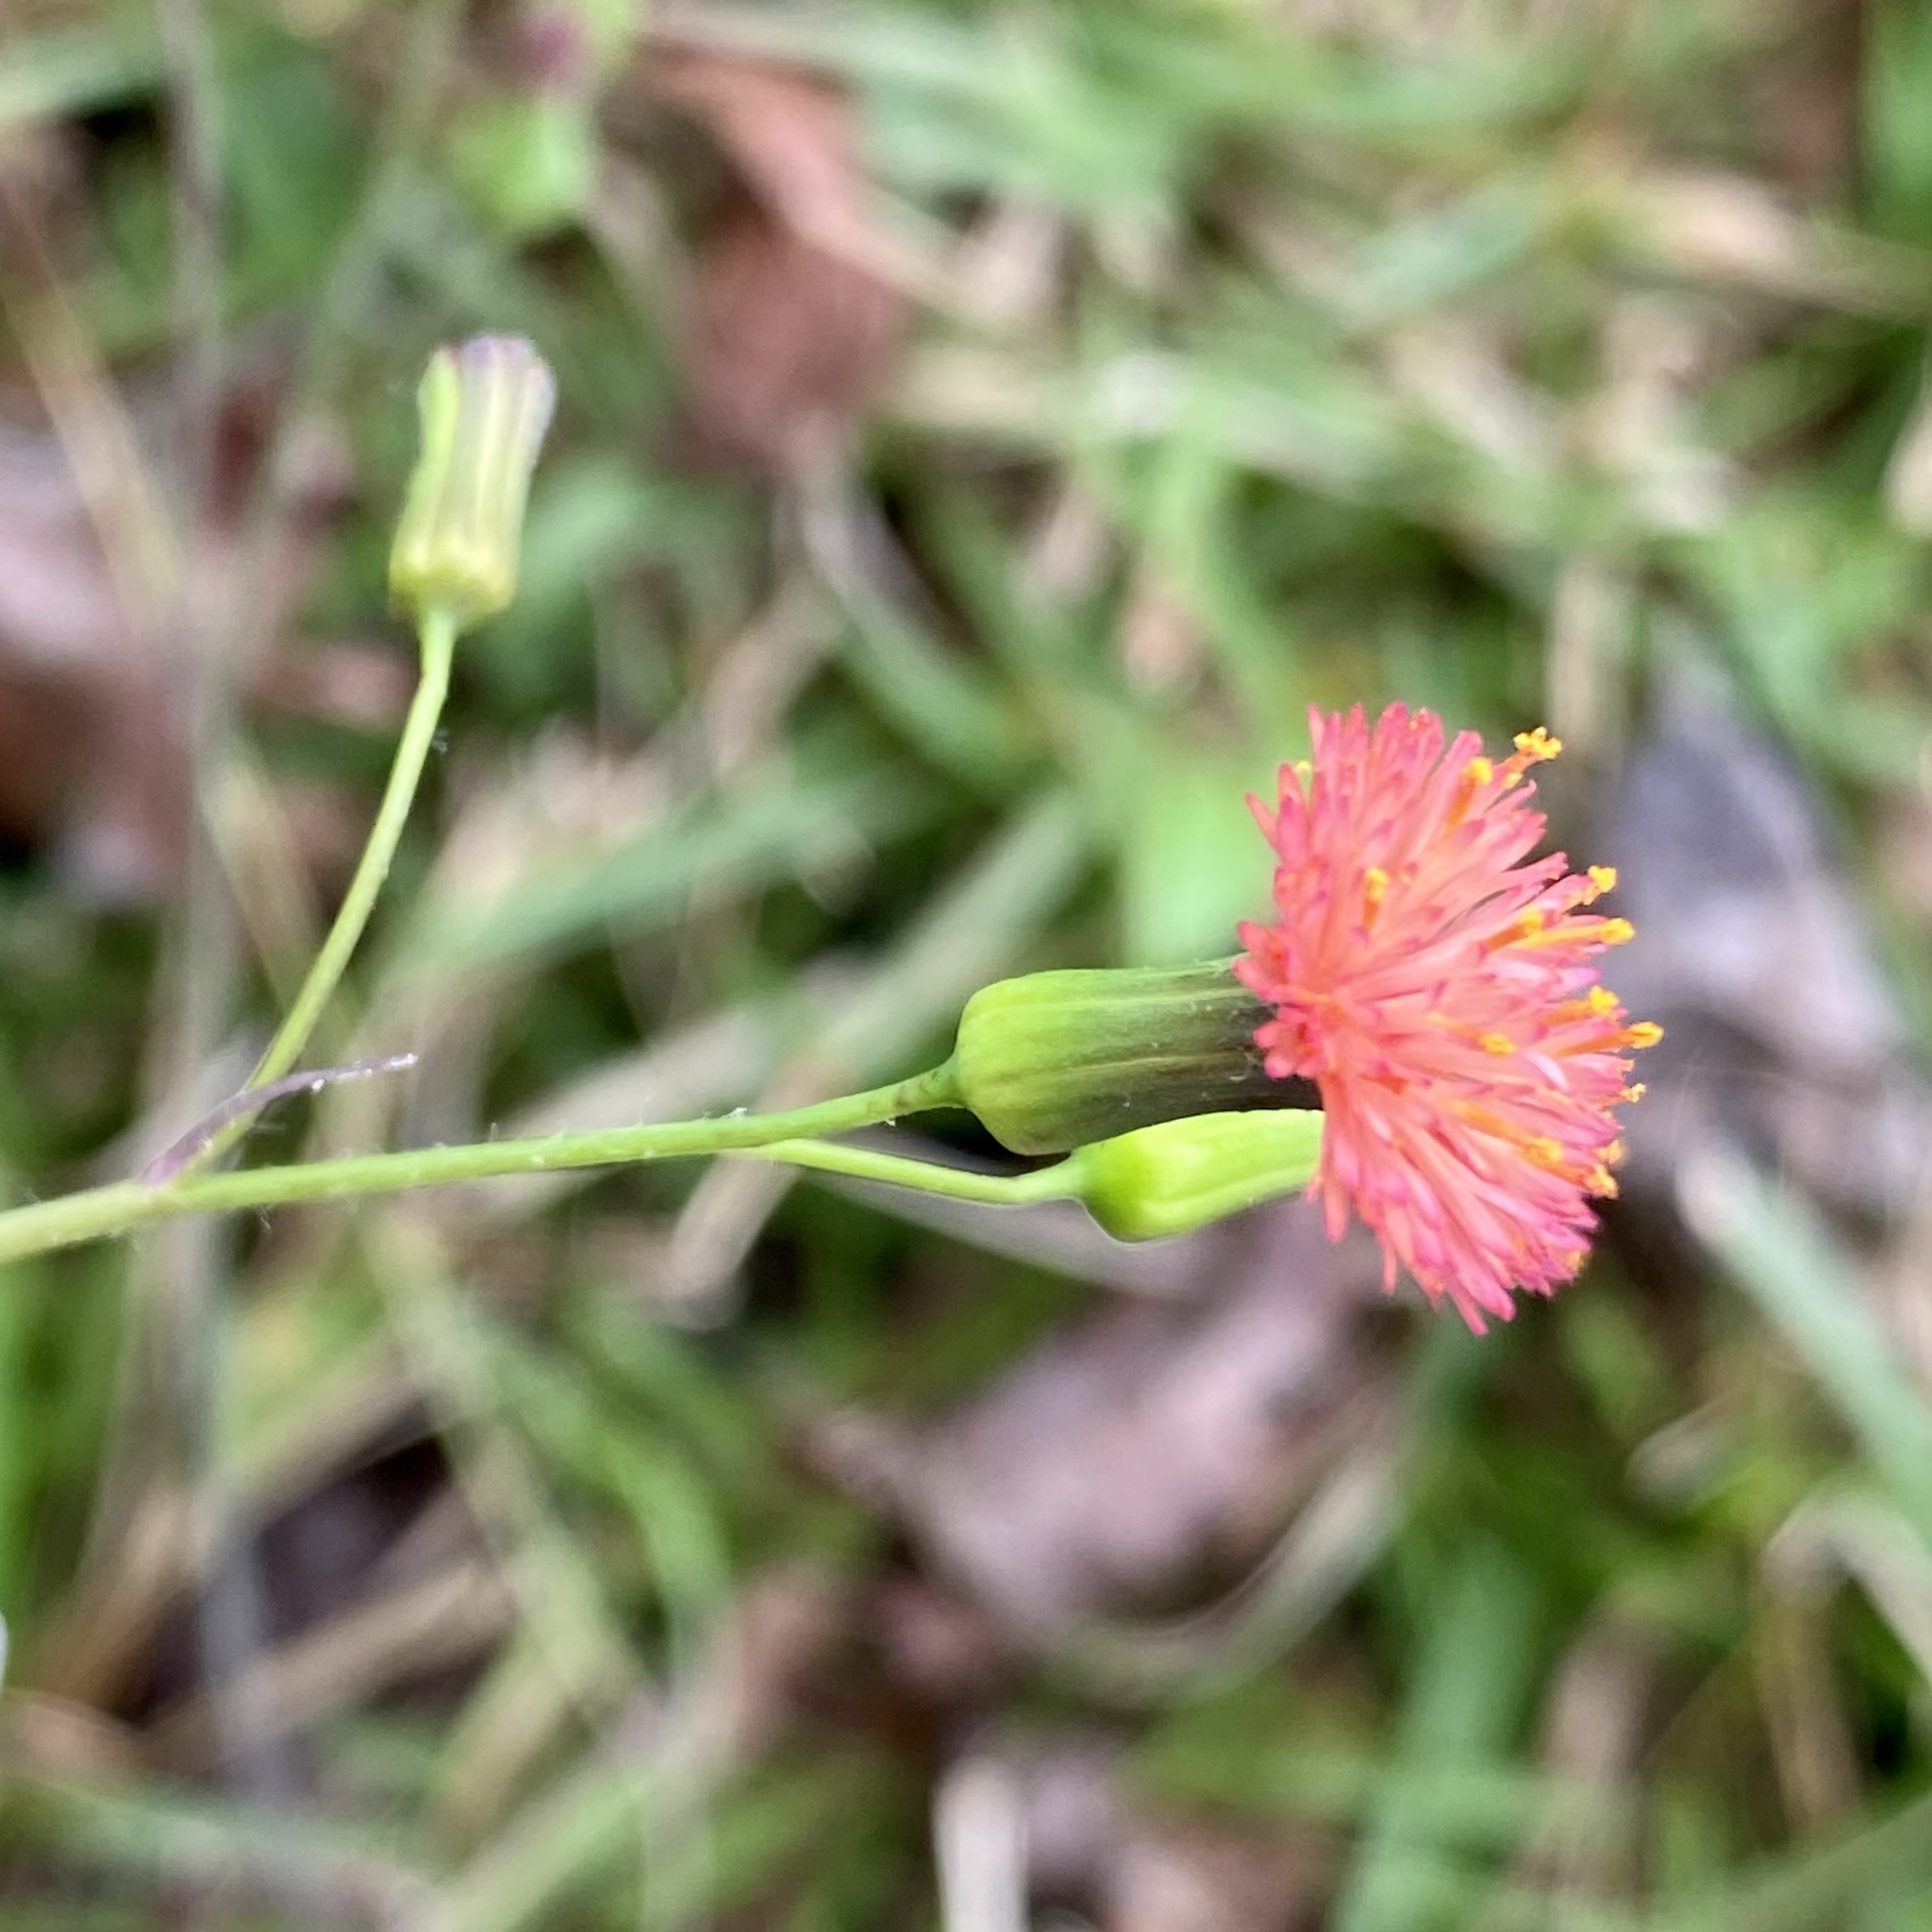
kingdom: Plantae
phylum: Tracheophyta
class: Magnoliopsida
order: Asterales
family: Asteraceae
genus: Emilia
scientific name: Emilia fosbergii
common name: Florida tasselflower
